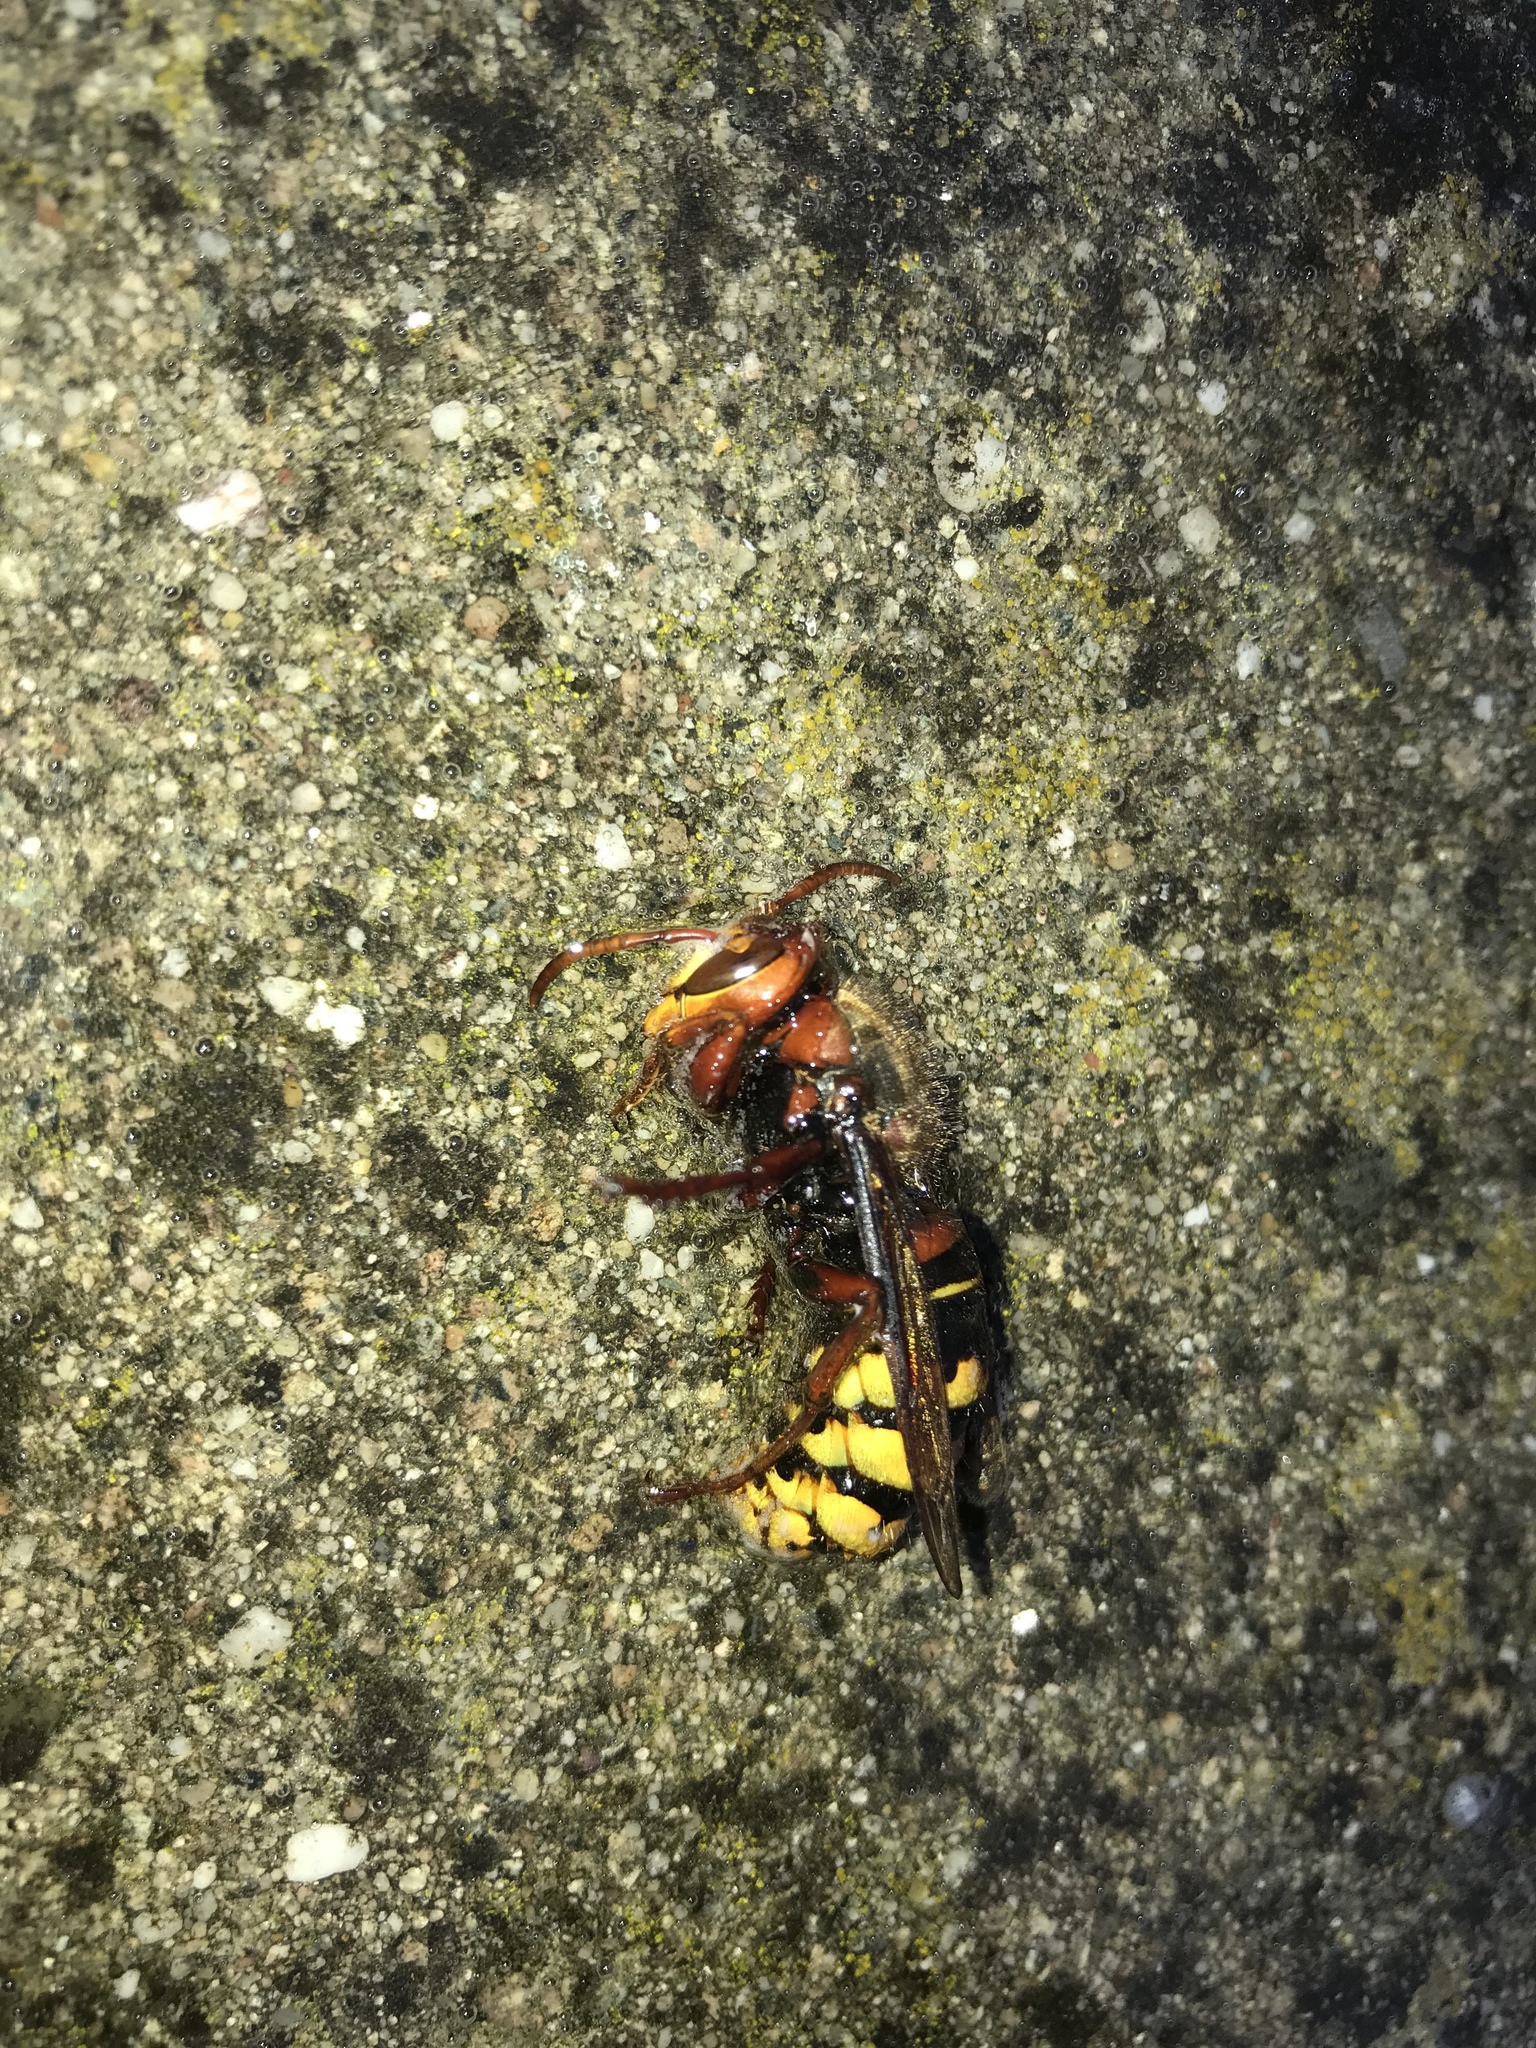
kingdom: Animalia
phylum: Arthropoda
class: Insecta
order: Hymenoptera
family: Vespidae
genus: Vespa
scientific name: Vespa crabro
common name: Hornet
